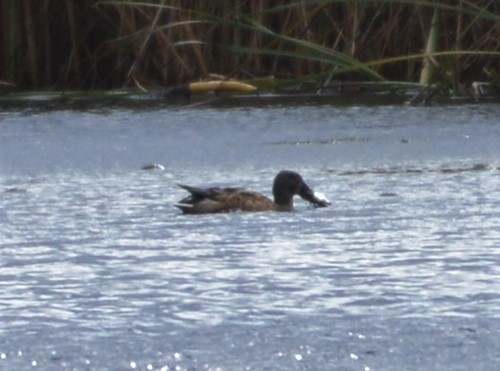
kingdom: Animalia
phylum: Chordata
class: Aves
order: Anseriformes
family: Anatidae
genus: Spatula
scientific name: Spatula clypeata
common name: Northern shoveler
